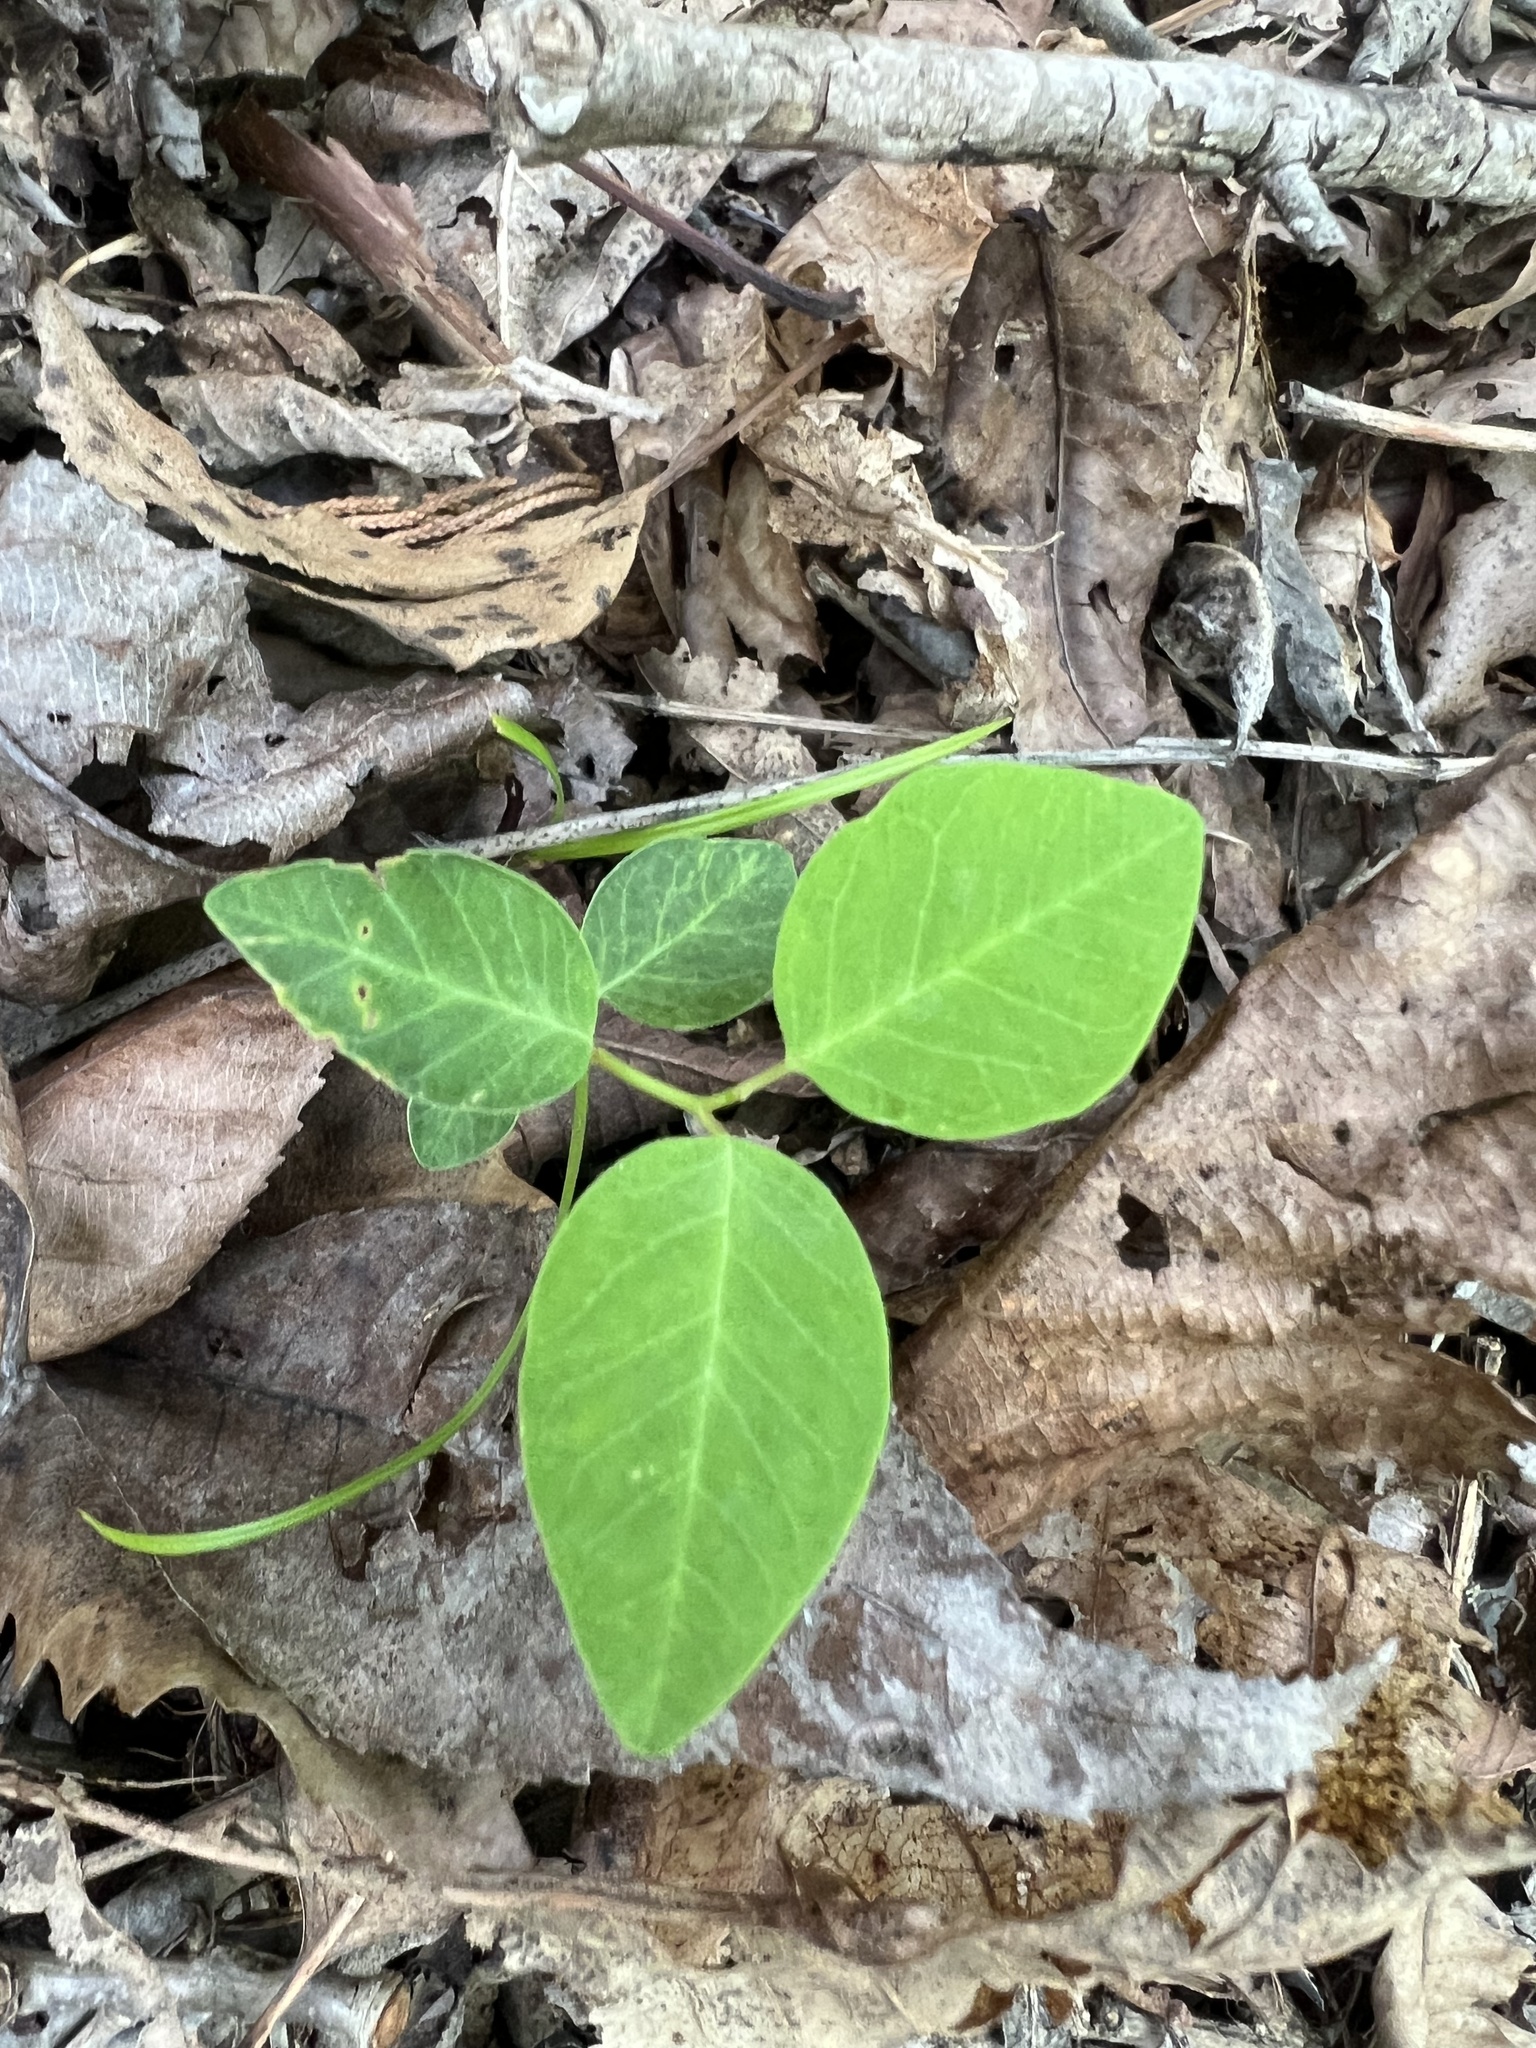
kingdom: Plantae
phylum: Tracheophyta
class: Magnoliopsida
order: Malpighiales
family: Euphorbiaceae
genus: Euphorbia
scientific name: Euphorbia mercurialina
